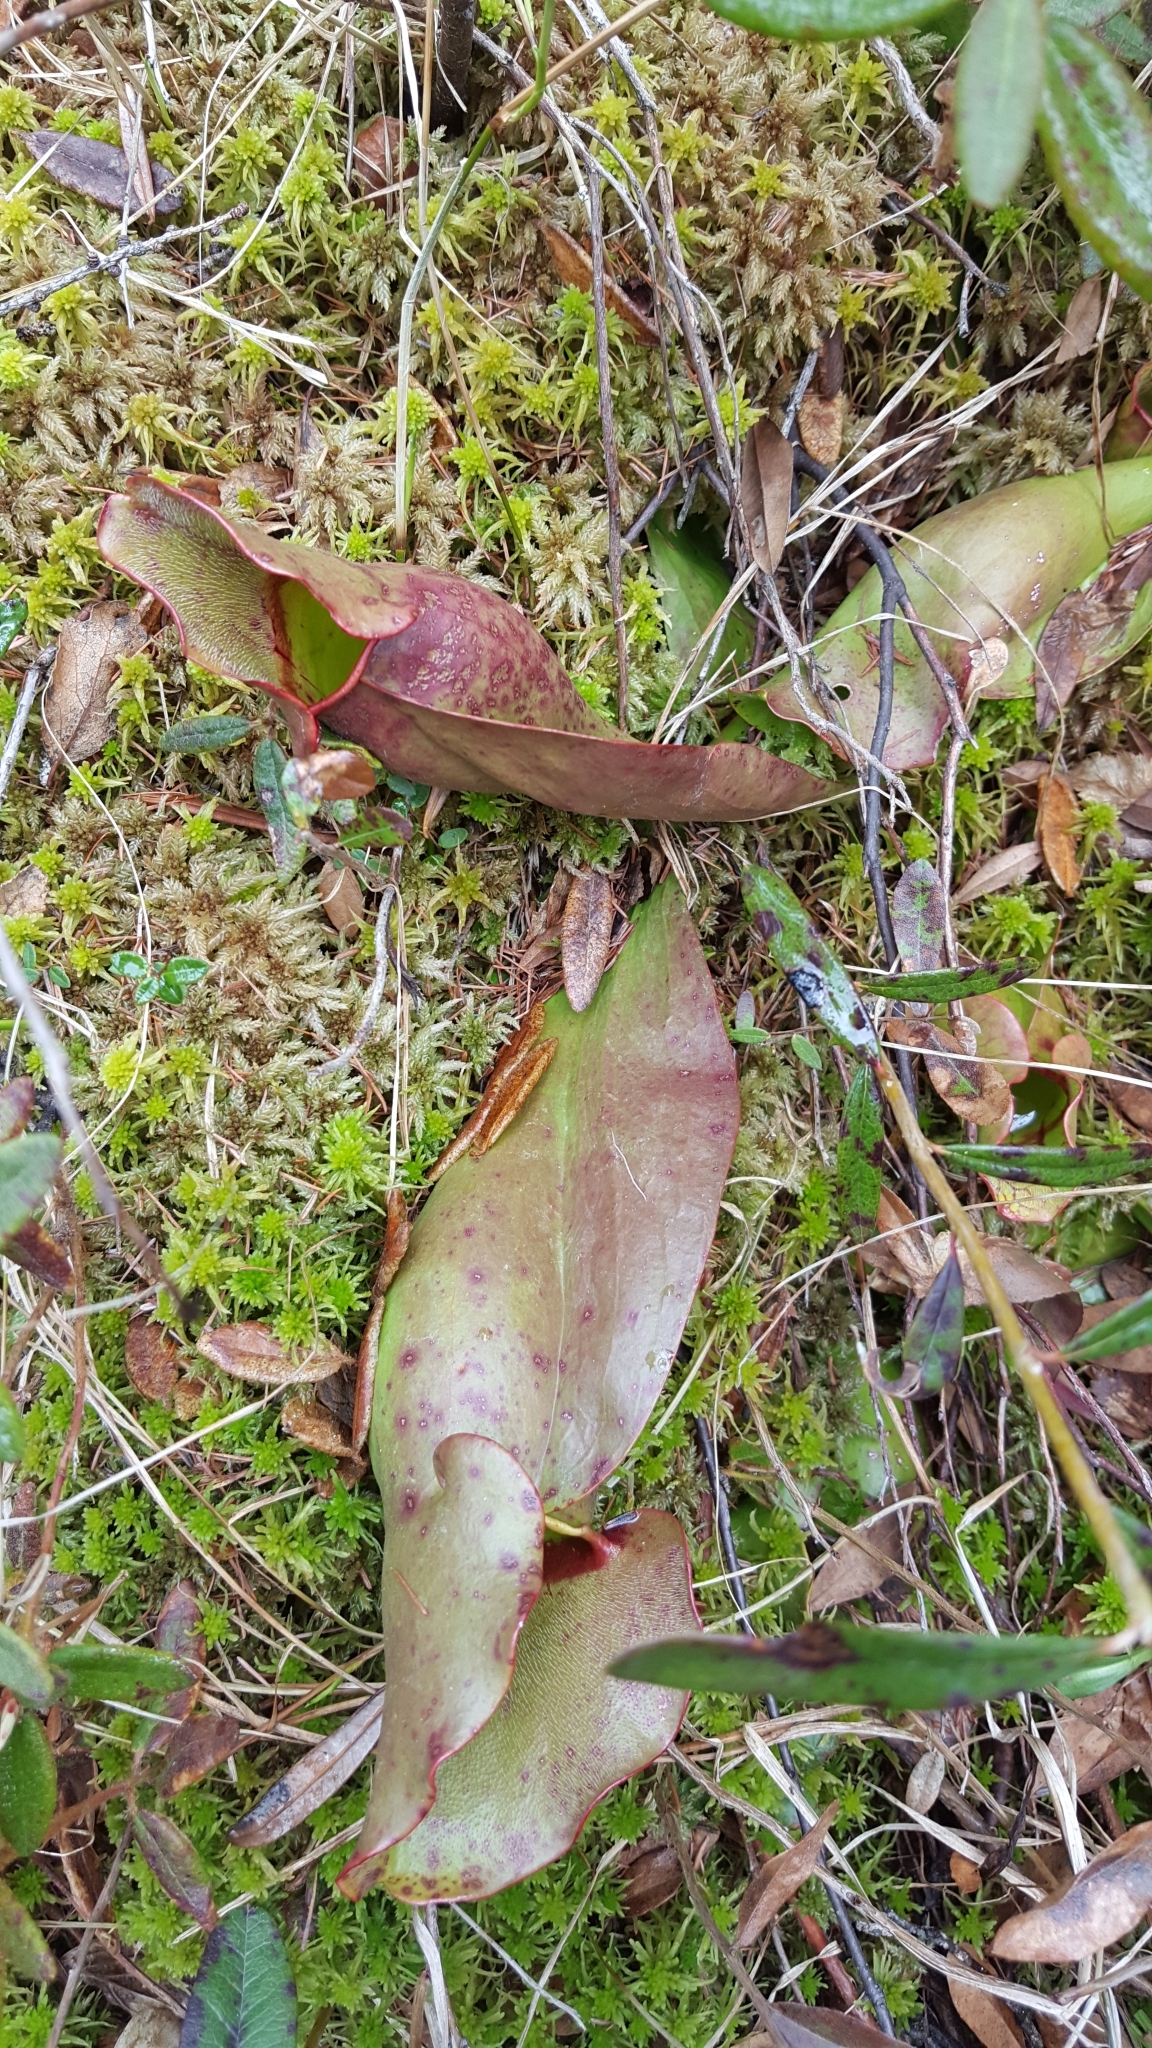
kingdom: Plantae
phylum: Tracheophyta
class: Magnoliopsida
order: Ericales
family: Sarraceniaceae
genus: Sarracenia
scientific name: Sarracenia purpurea
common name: Pitcherplant
